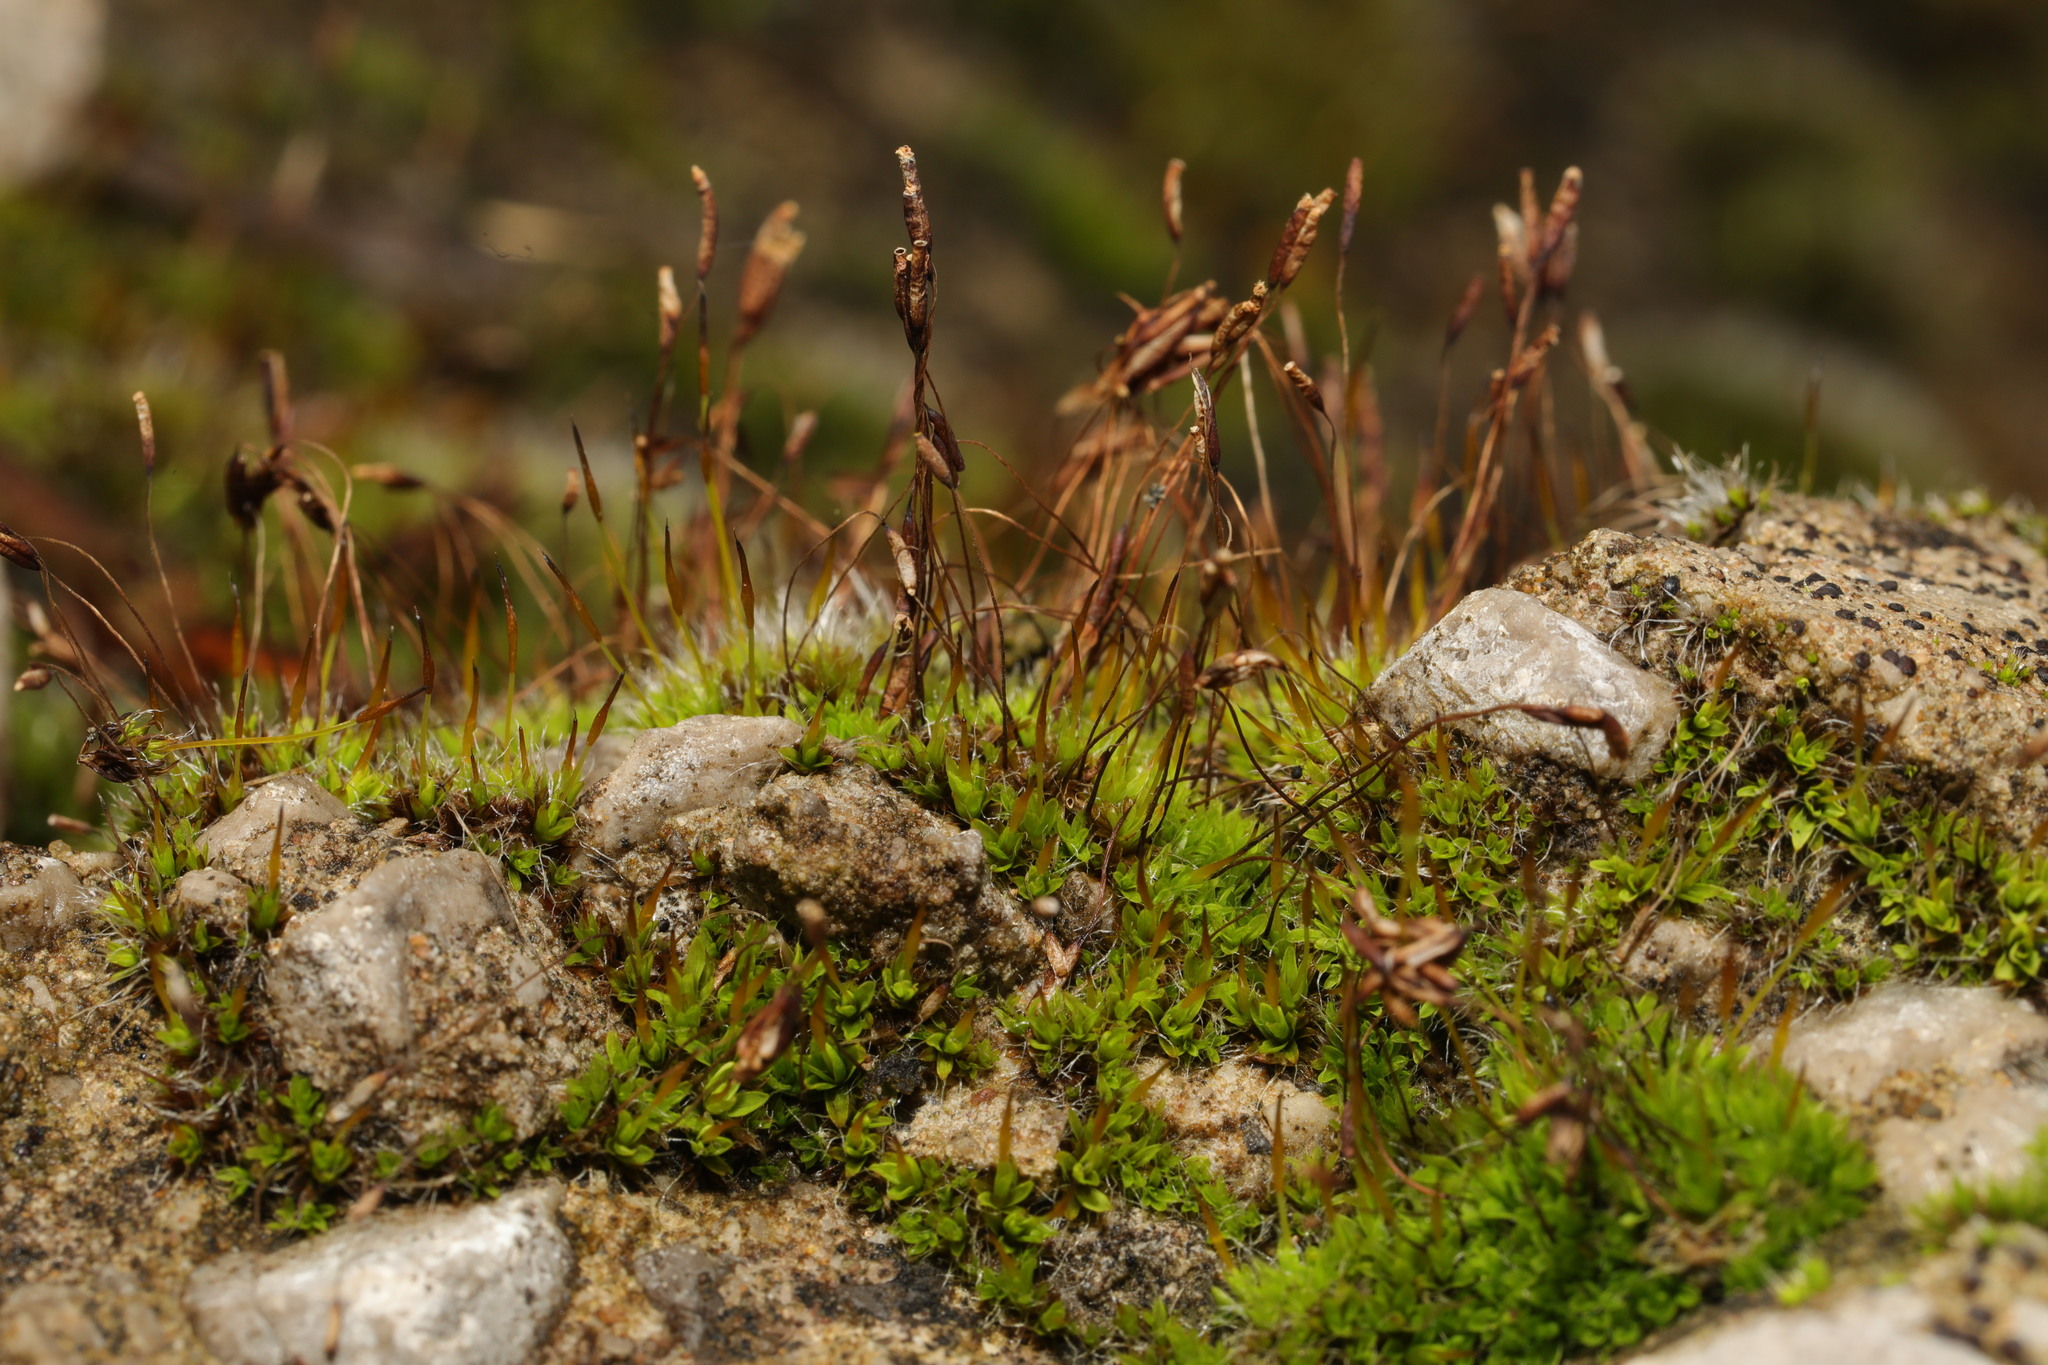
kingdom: Plantae
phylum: Bryophyta
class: Bryopsida
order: Pottiales
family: Pottiaceae
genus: Tortula
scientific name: Tortula muralis
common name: Wall screw-moss
